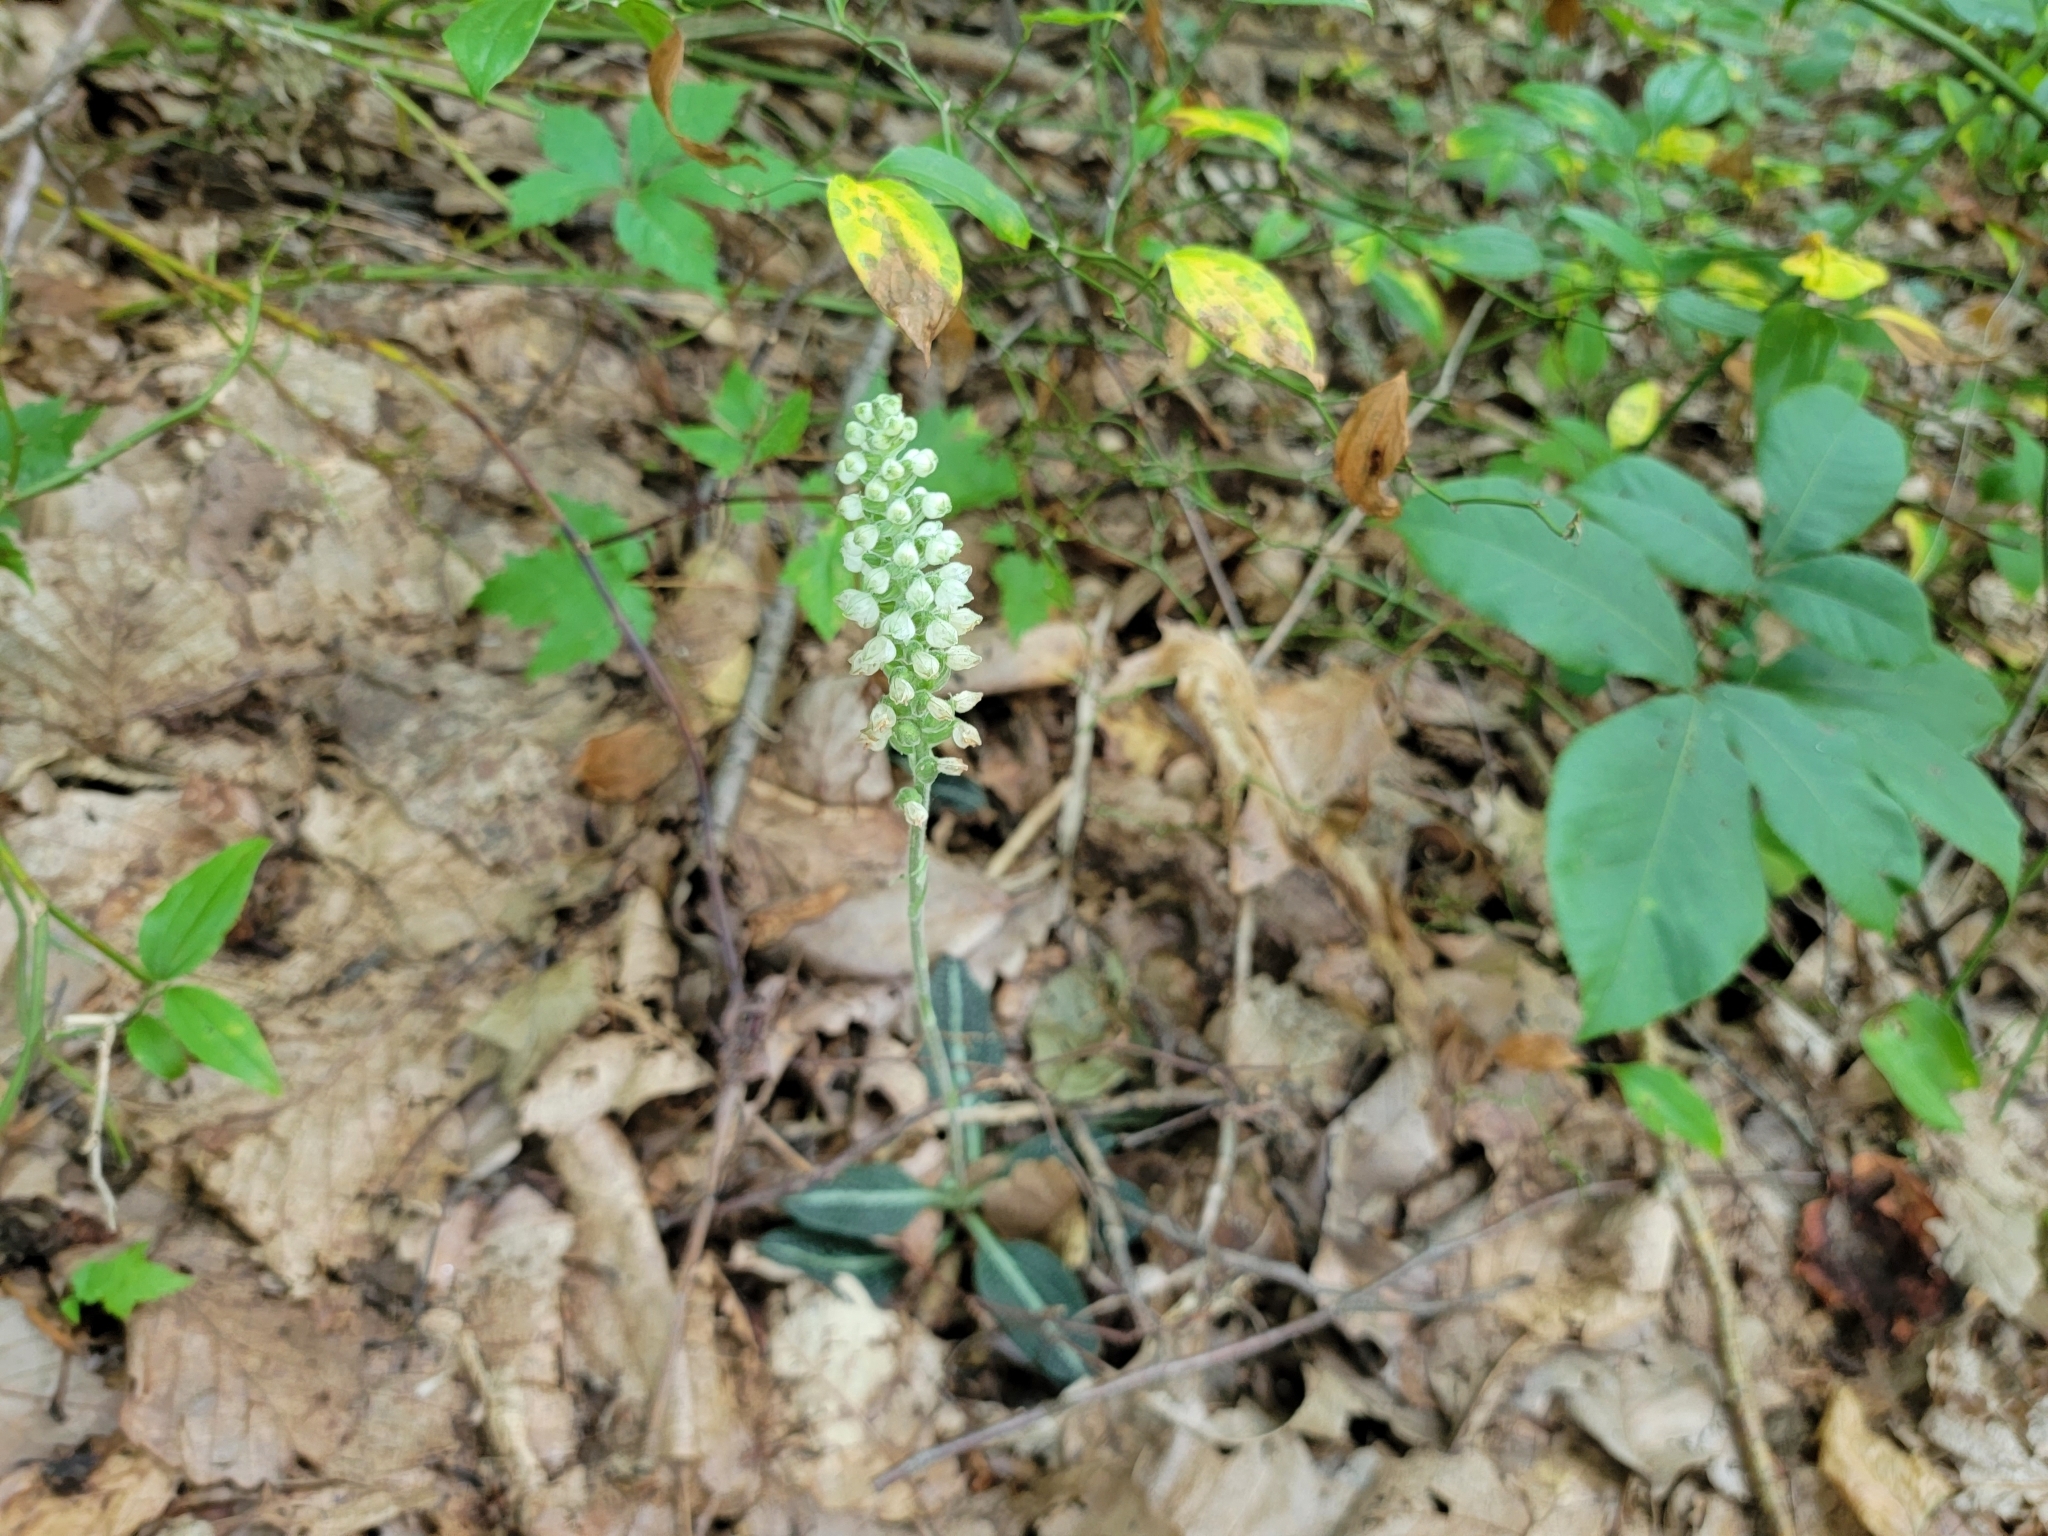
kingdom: Plantae
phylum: Tracheophyta
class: Liliopsida
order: Asparagales
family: Orchidaceae
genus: Goodyera
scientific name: Goodyera pubescens
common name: Downy rattlesnake-plantain
